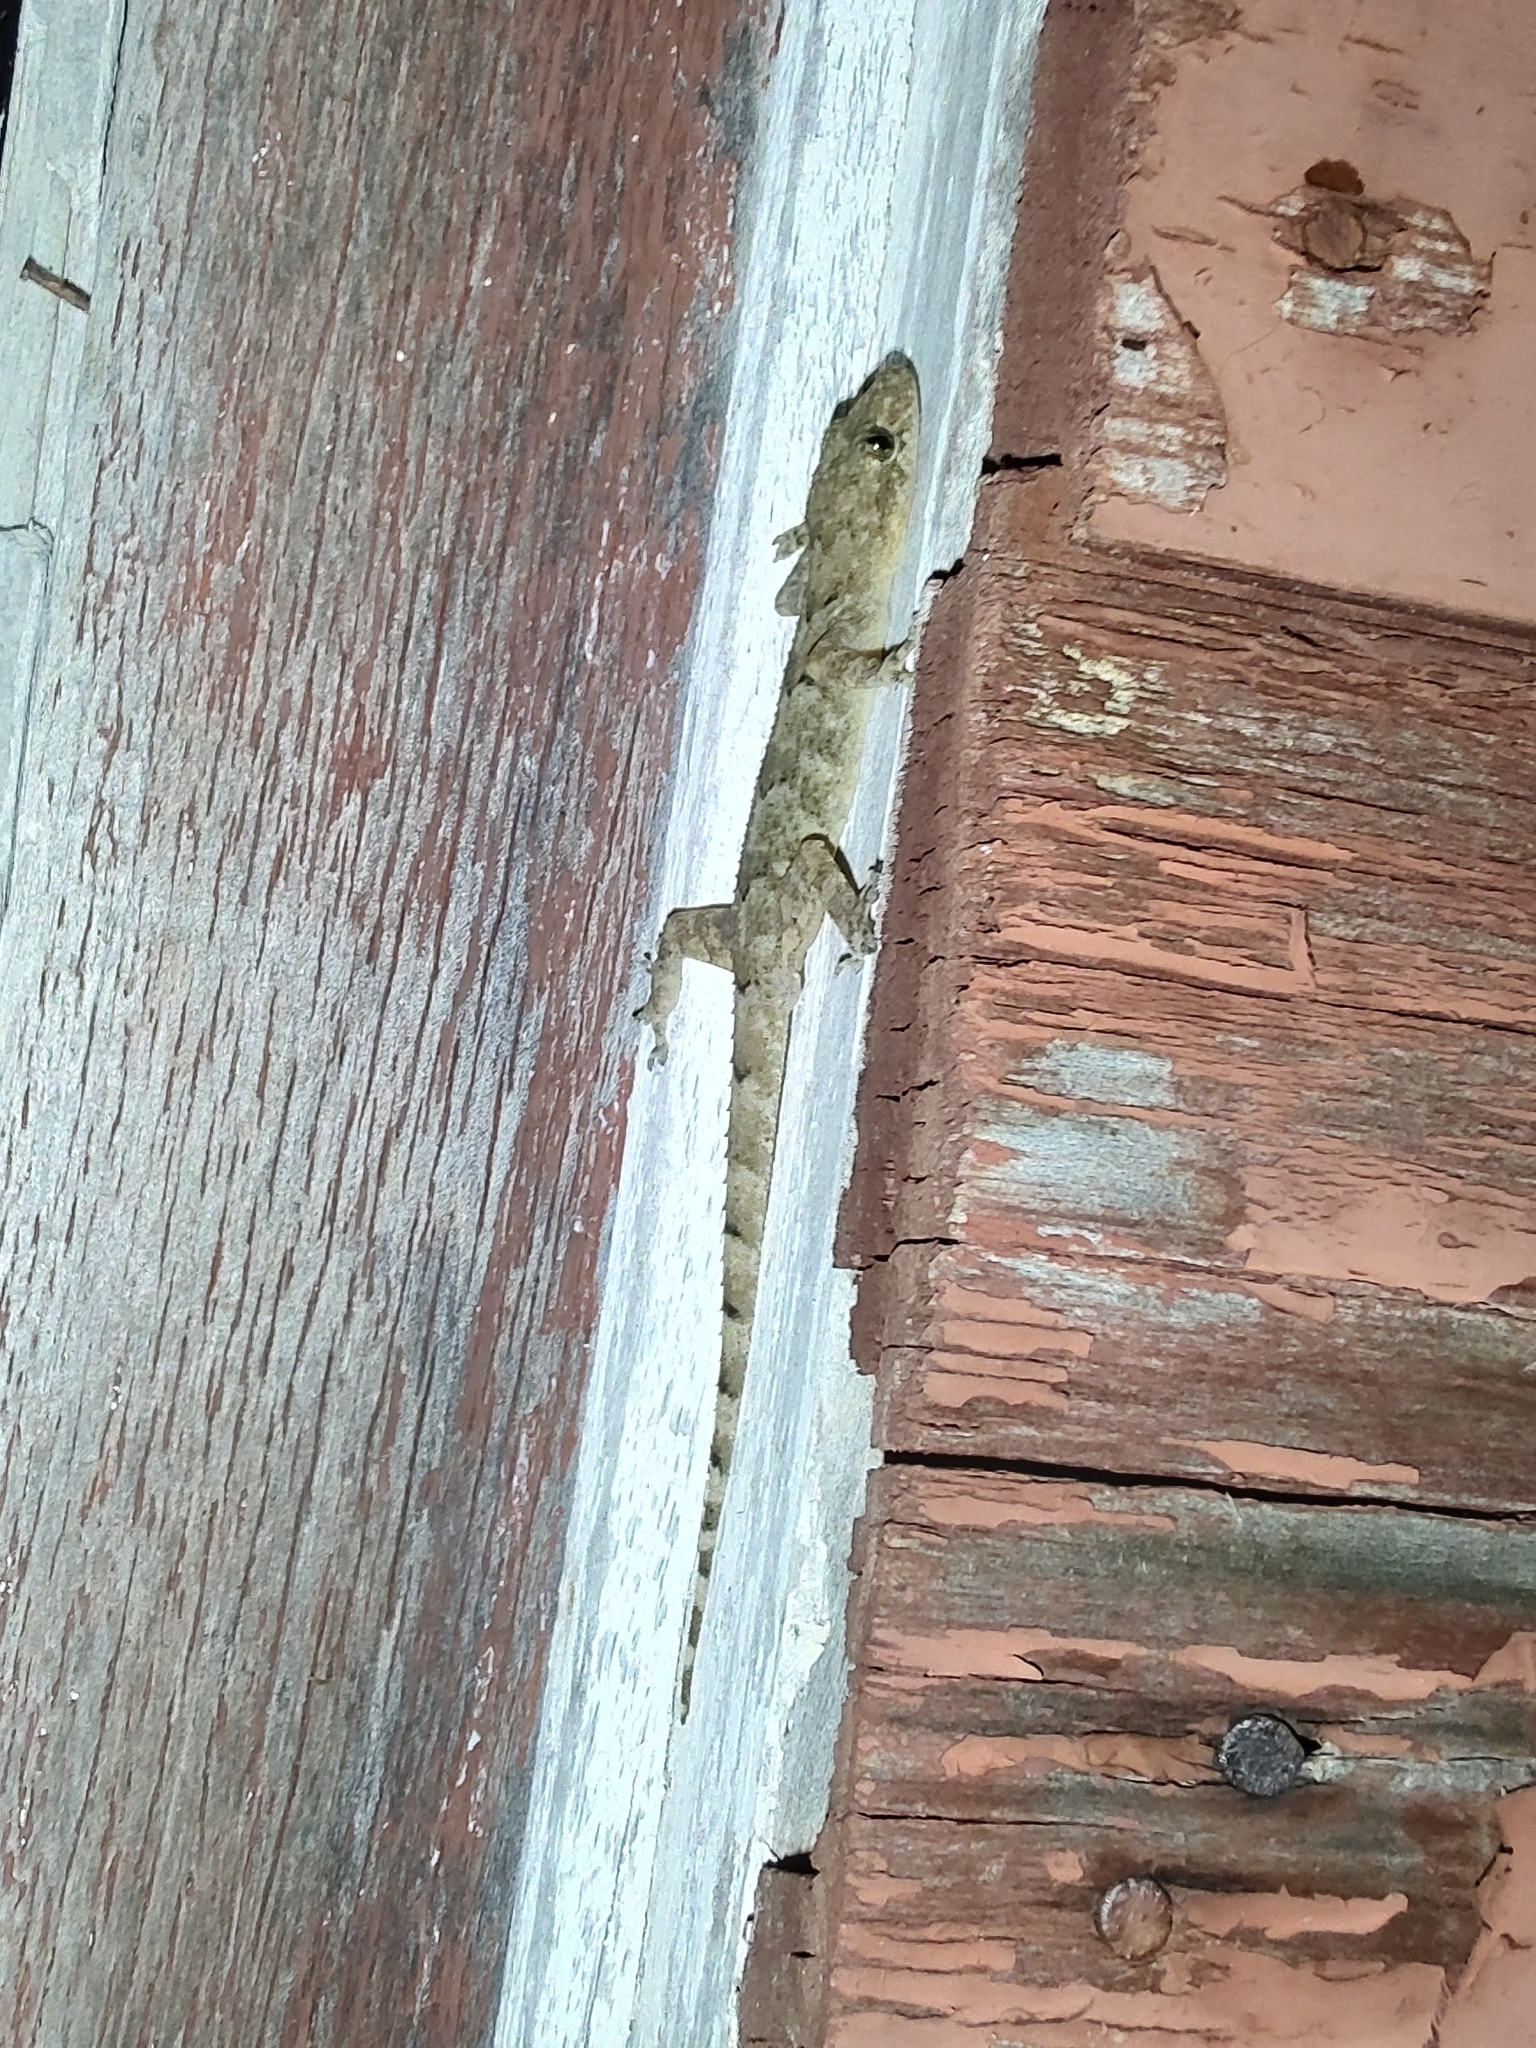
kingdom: Animalia
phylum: Chordata
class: Squamata
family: Gekkonidae
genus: Hemidactylus
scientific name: Hemidactylus mabouia
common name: House gecko
